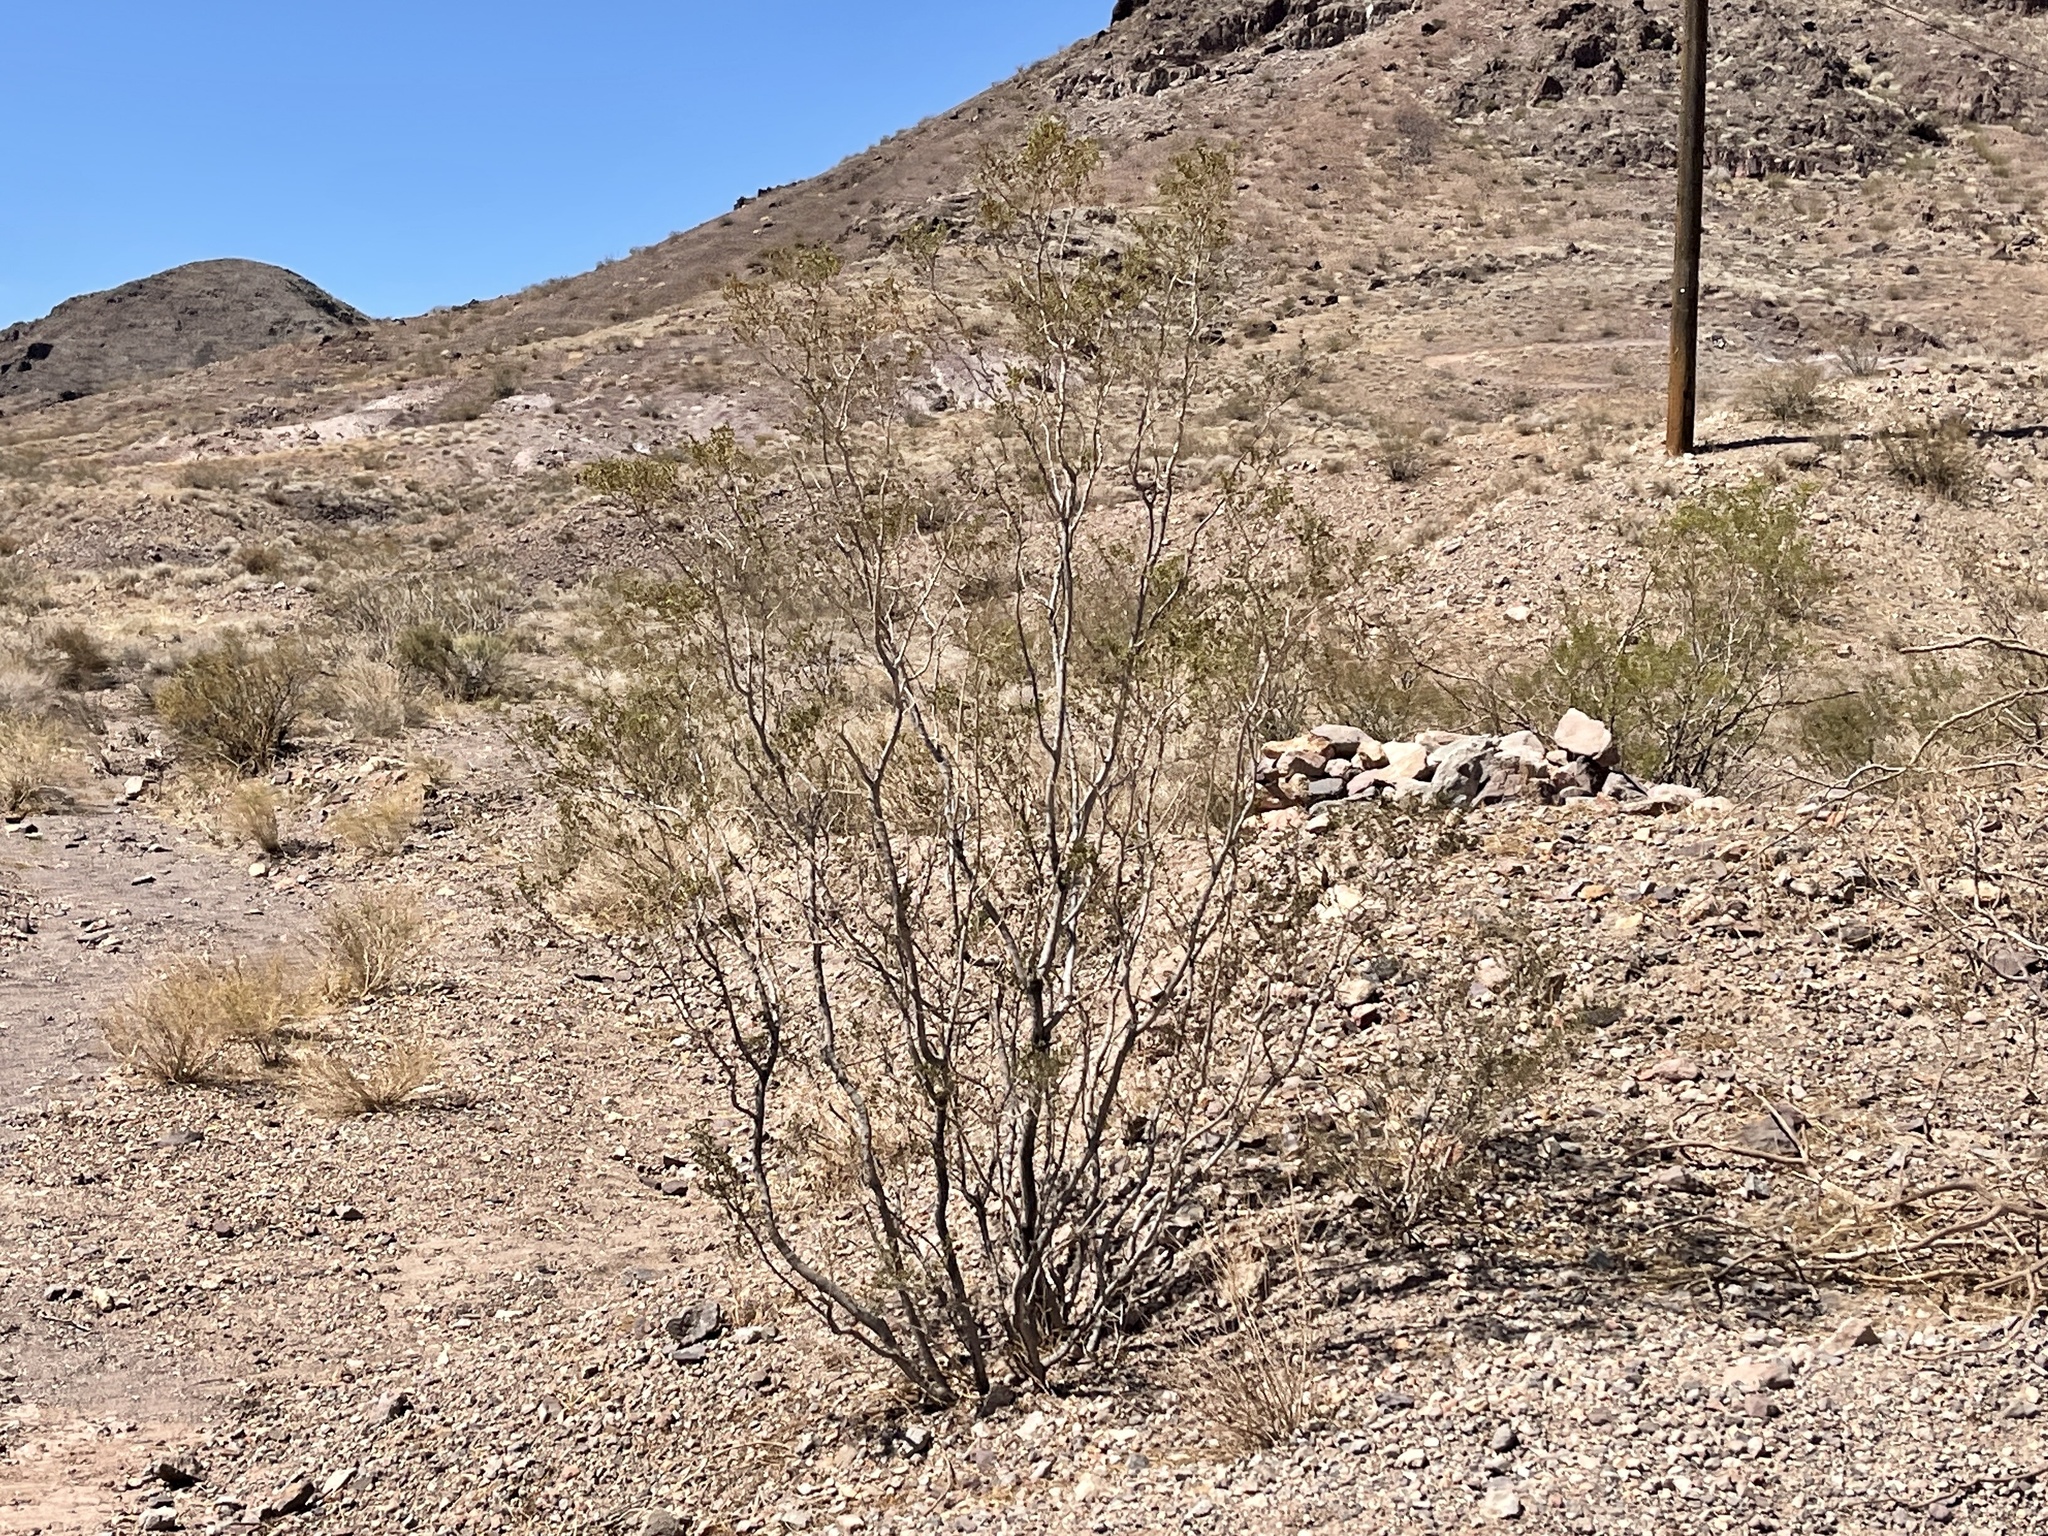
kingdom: Plantae
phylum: Tracheophyta
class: Magnoliopsida
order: Zygophyllales
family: Zygophyllaceae
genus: Larrea
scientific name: Larrea tridentata
